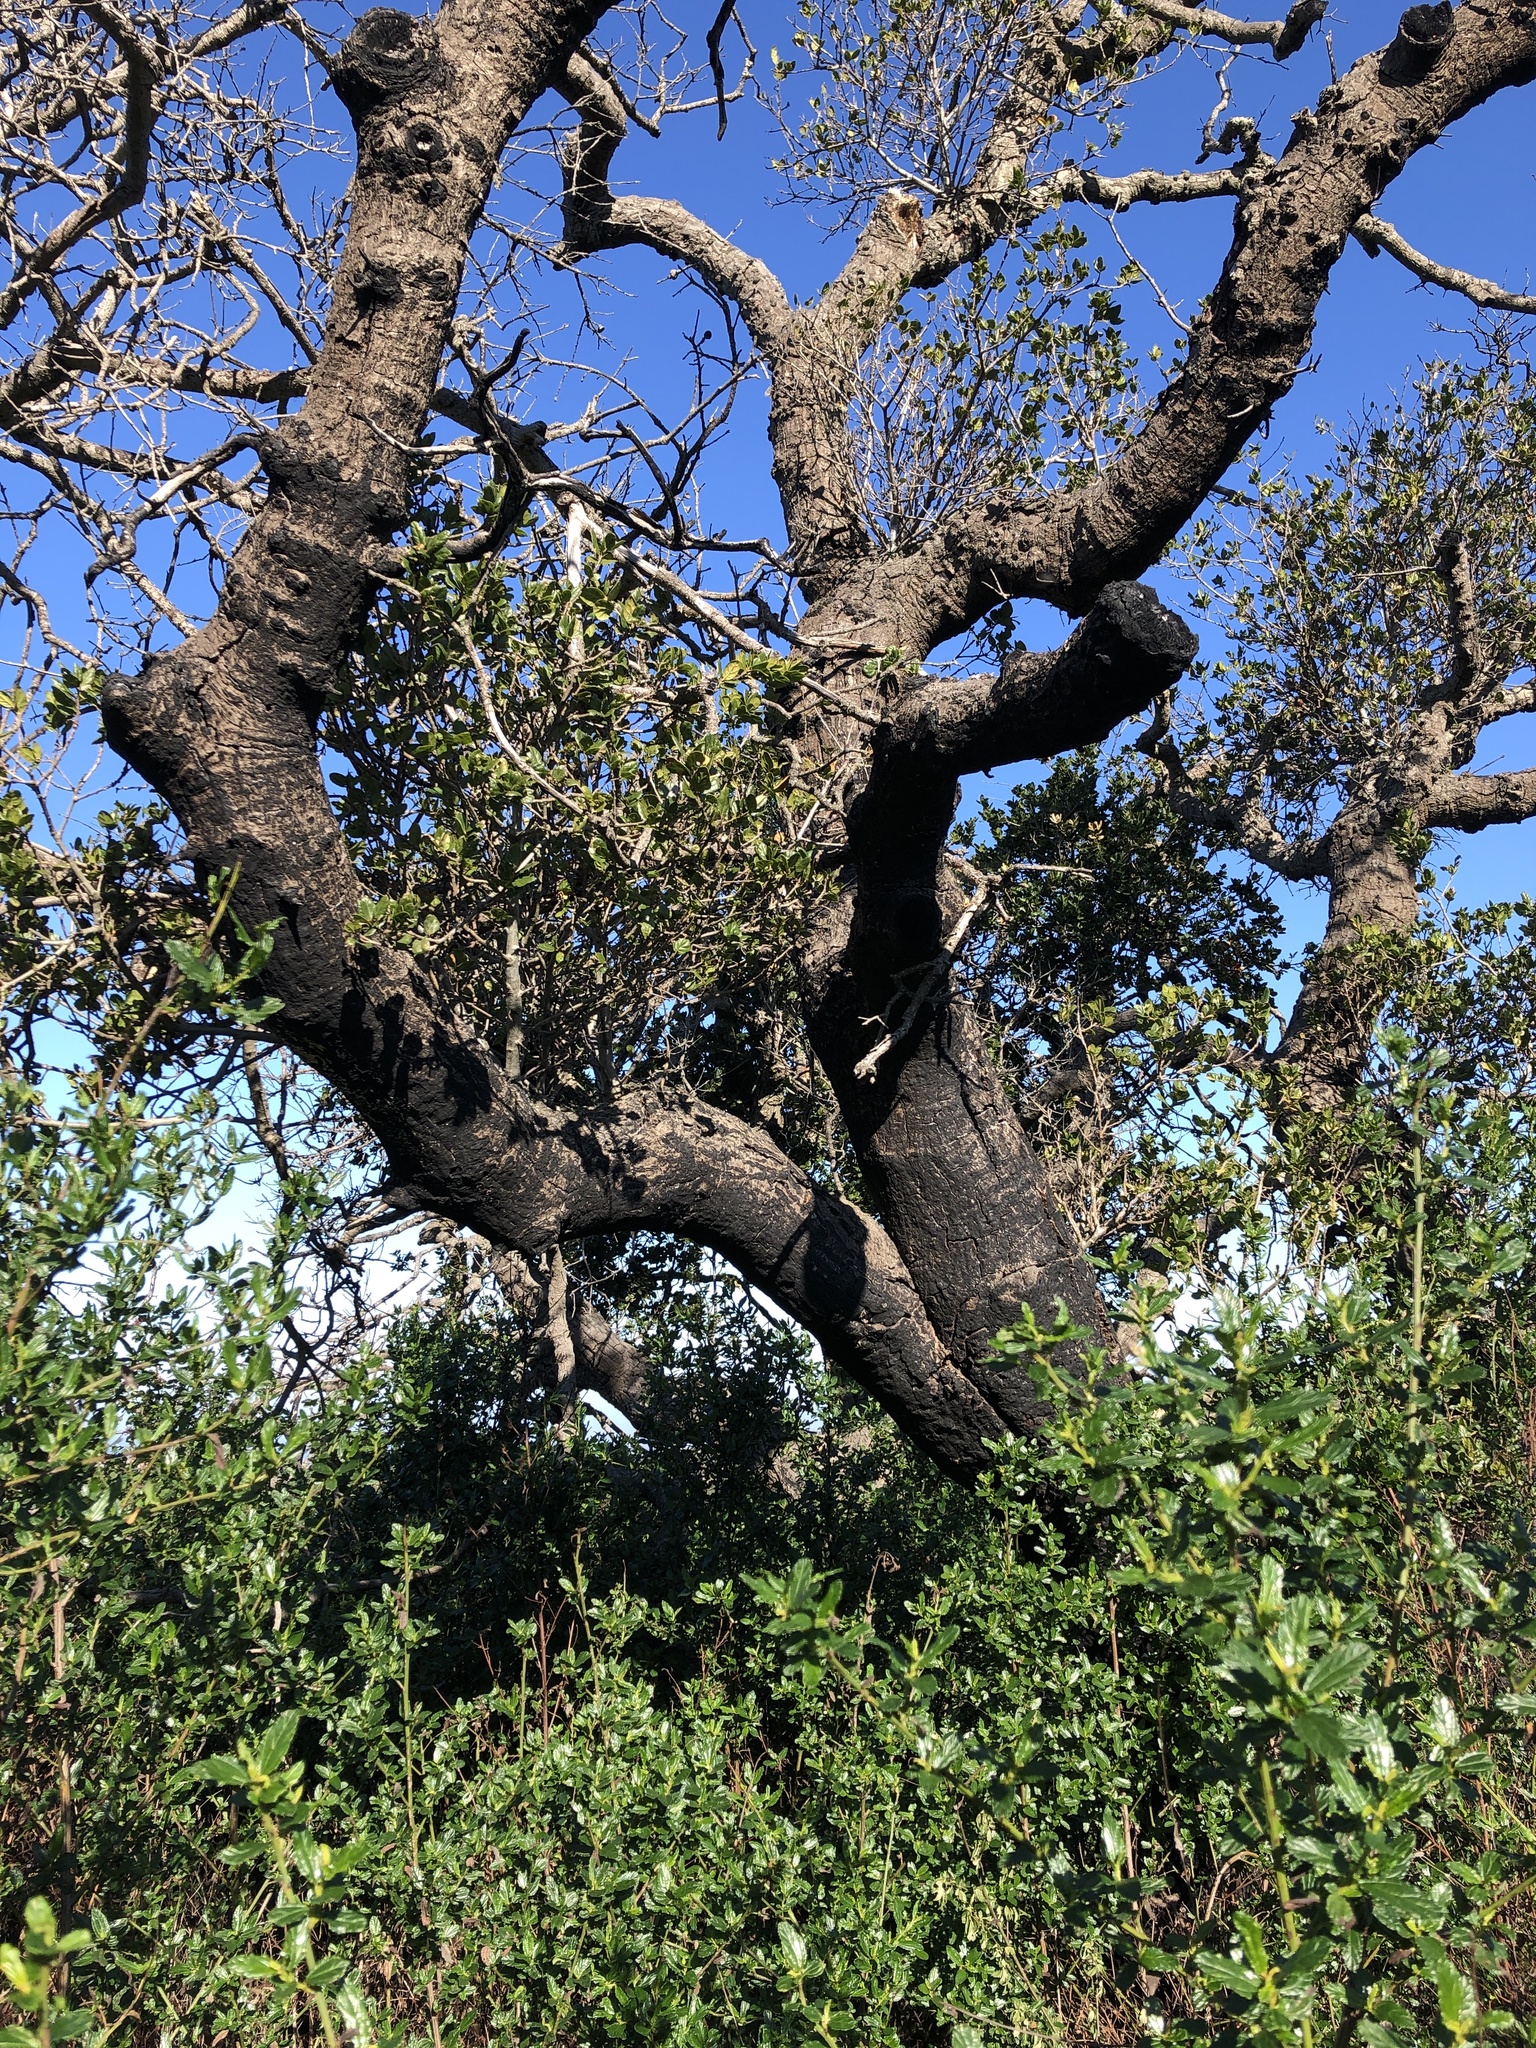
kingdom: Plantae
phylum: Tracheophyta
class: Magnoliopsida
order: Fagales
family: Fagaceae
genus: Quercus
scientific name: Quercus agrifolia
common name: California live oak
